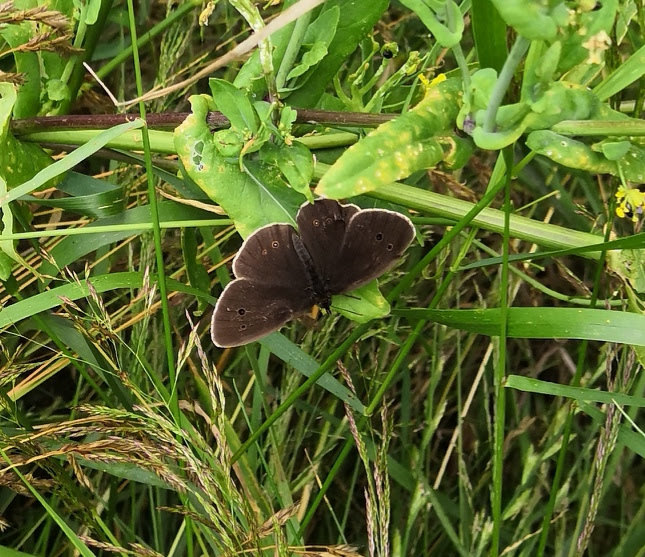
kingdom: Animalia
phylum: Arthropoda
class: Insecta
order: Lepidoptera
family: Nymphalidae
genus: Aphantopus
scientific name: Aphantopus hyperantus
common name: Ringlet
